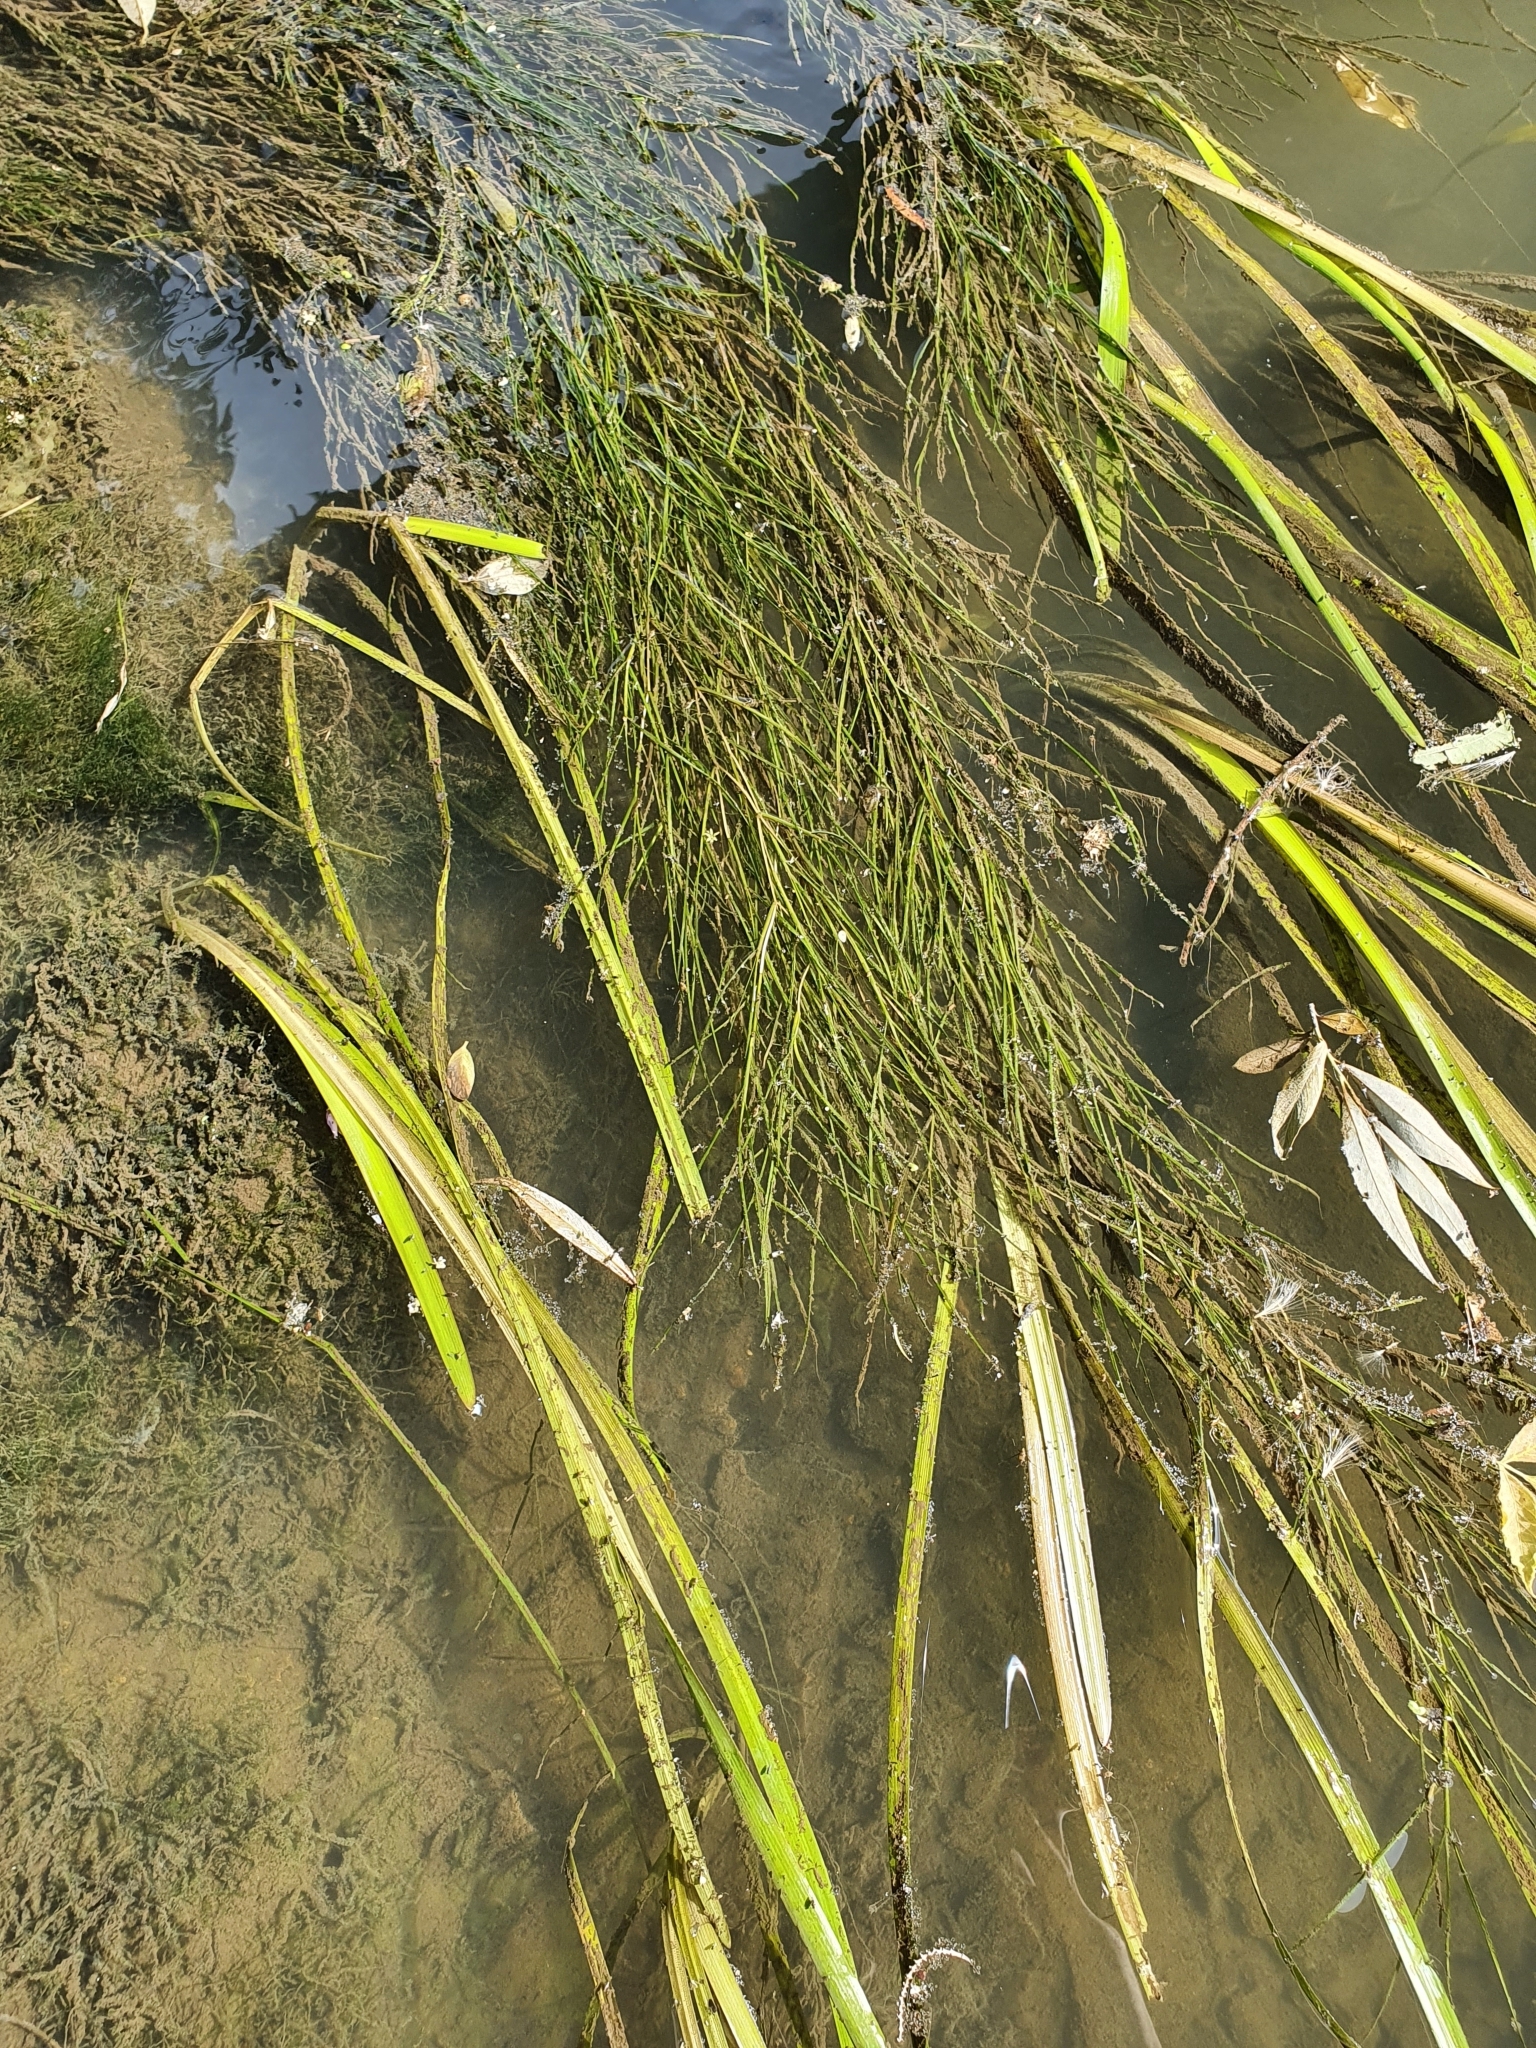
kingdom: Plantae
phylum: Tracheophyta
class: Liliopsida
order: Alismatales
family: Potamogetonaceae
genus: Stuckenia
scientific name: Stuckenia pectinata
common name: Sago pondweed
